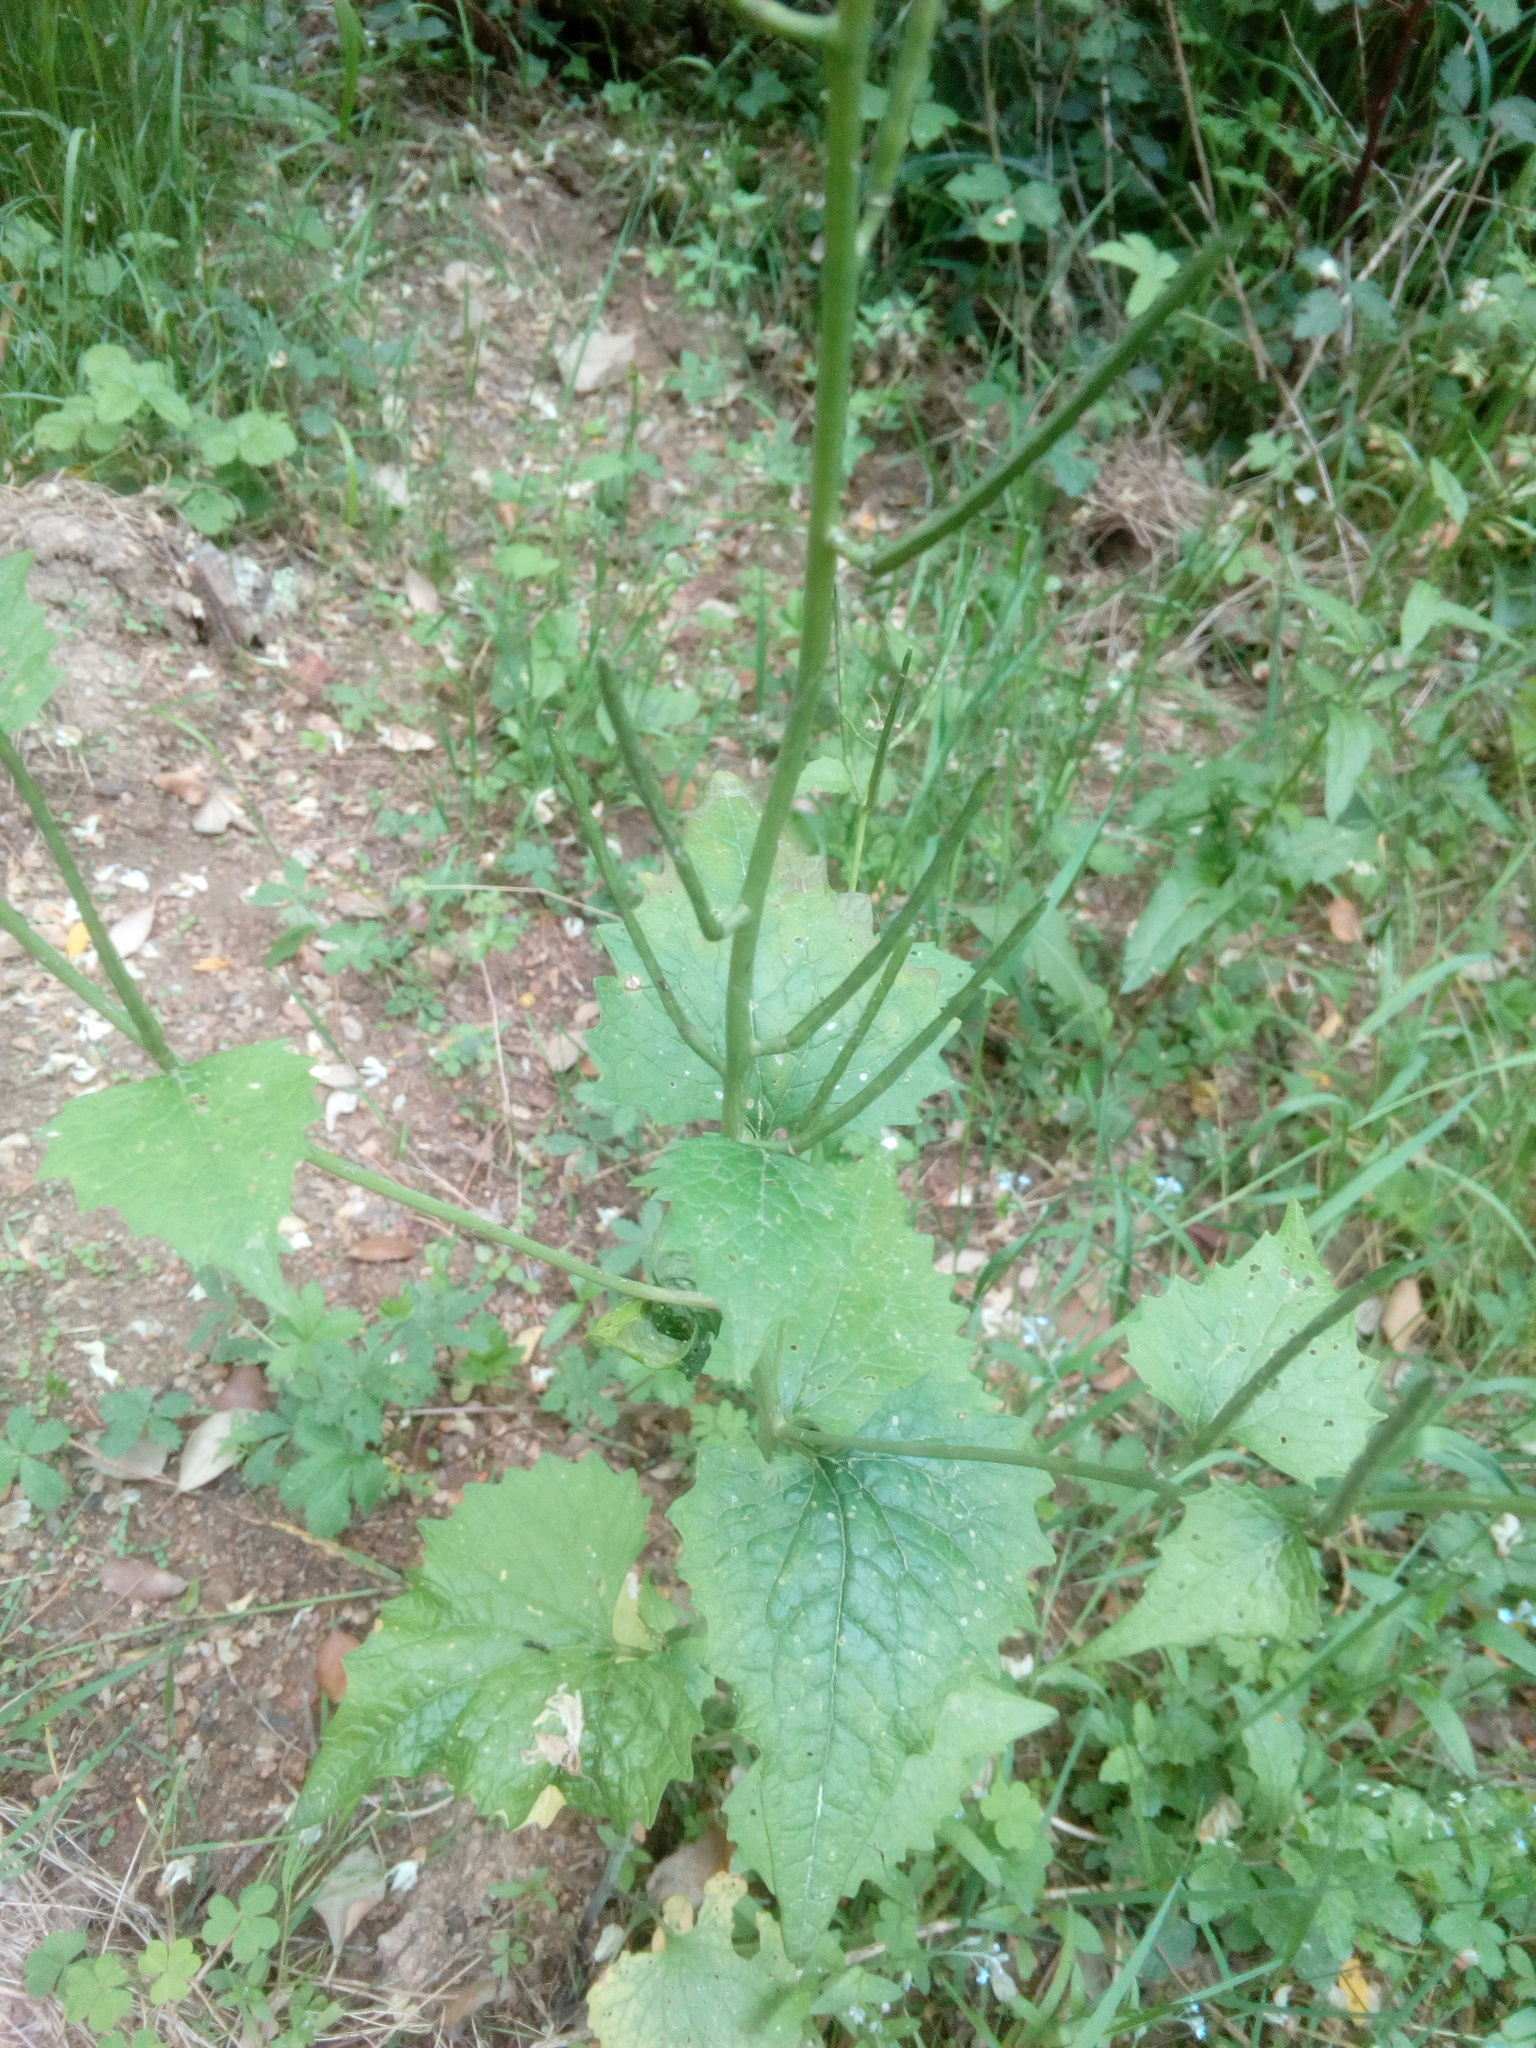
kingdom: Plantae
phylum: Tracheophyta
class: Magnoliopsida
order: Brassicales
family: Brassicaceae
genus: Alliaria
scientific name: Alliaria petiolata
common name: Garlic mustard
